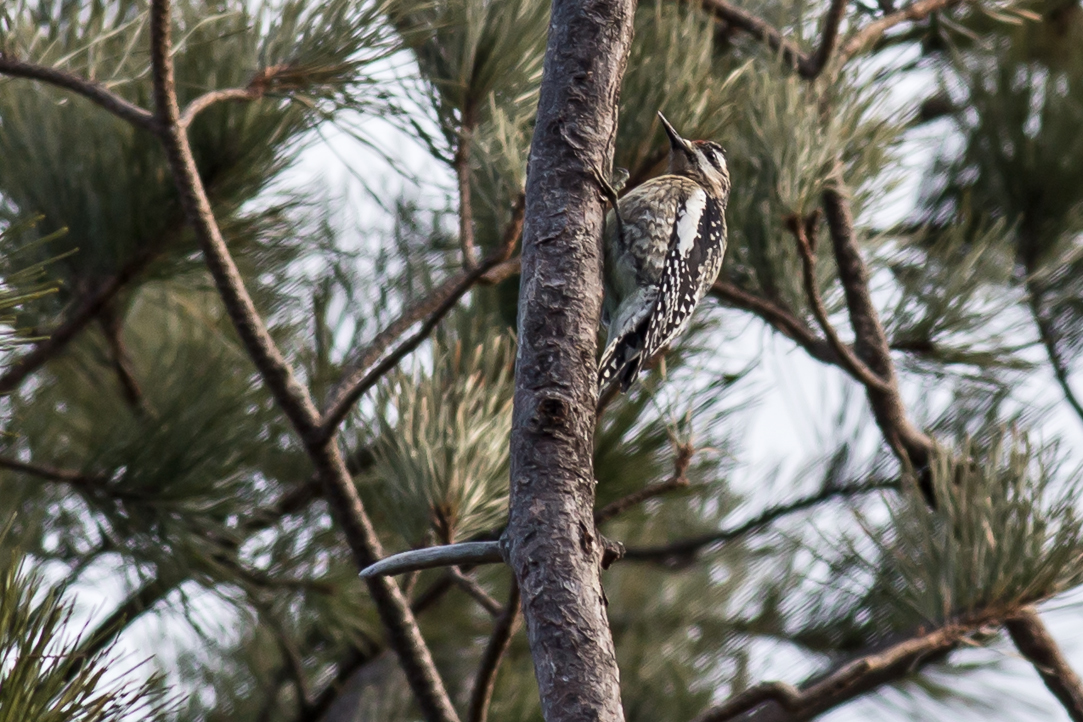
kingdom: Animalia
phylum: Chordata
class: Aves
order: Piciformes
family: Picidae
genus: Sphyrapicus
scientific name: Sphyrapicus varius
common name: Yellow-bellied sapsucker
